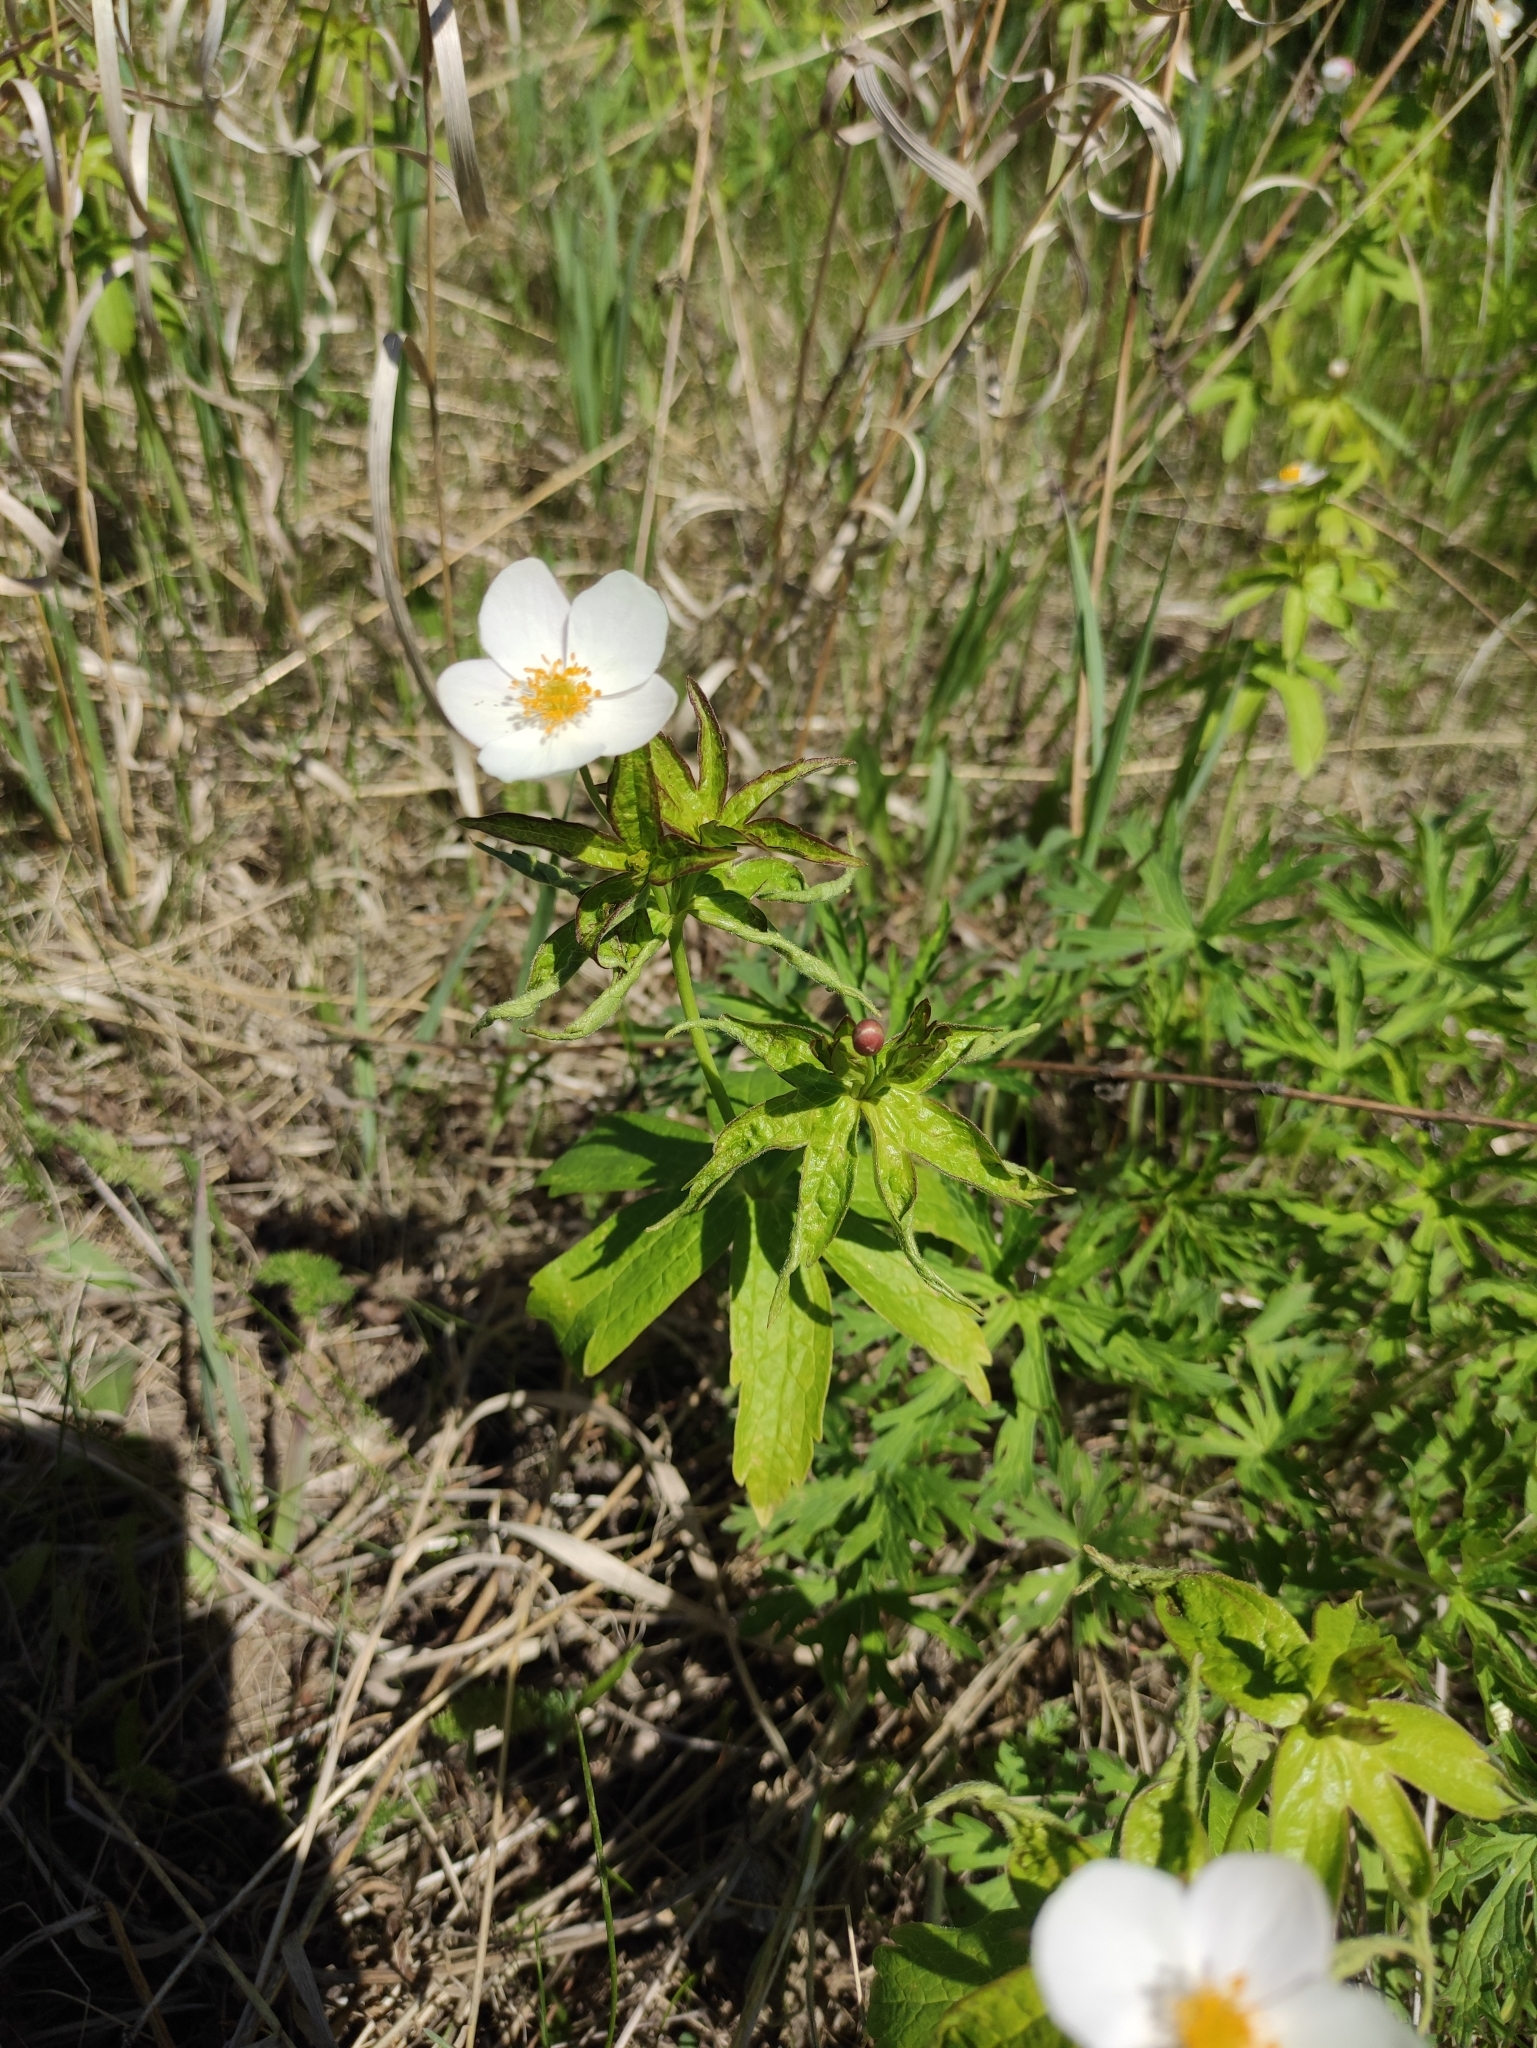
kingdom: Plantae
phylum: Tracheophyta
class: Magnoliopsida
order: Ranunculales
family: Ranunculaceae
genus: Anemonastrum
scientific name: Anemonastrum dichotomum
